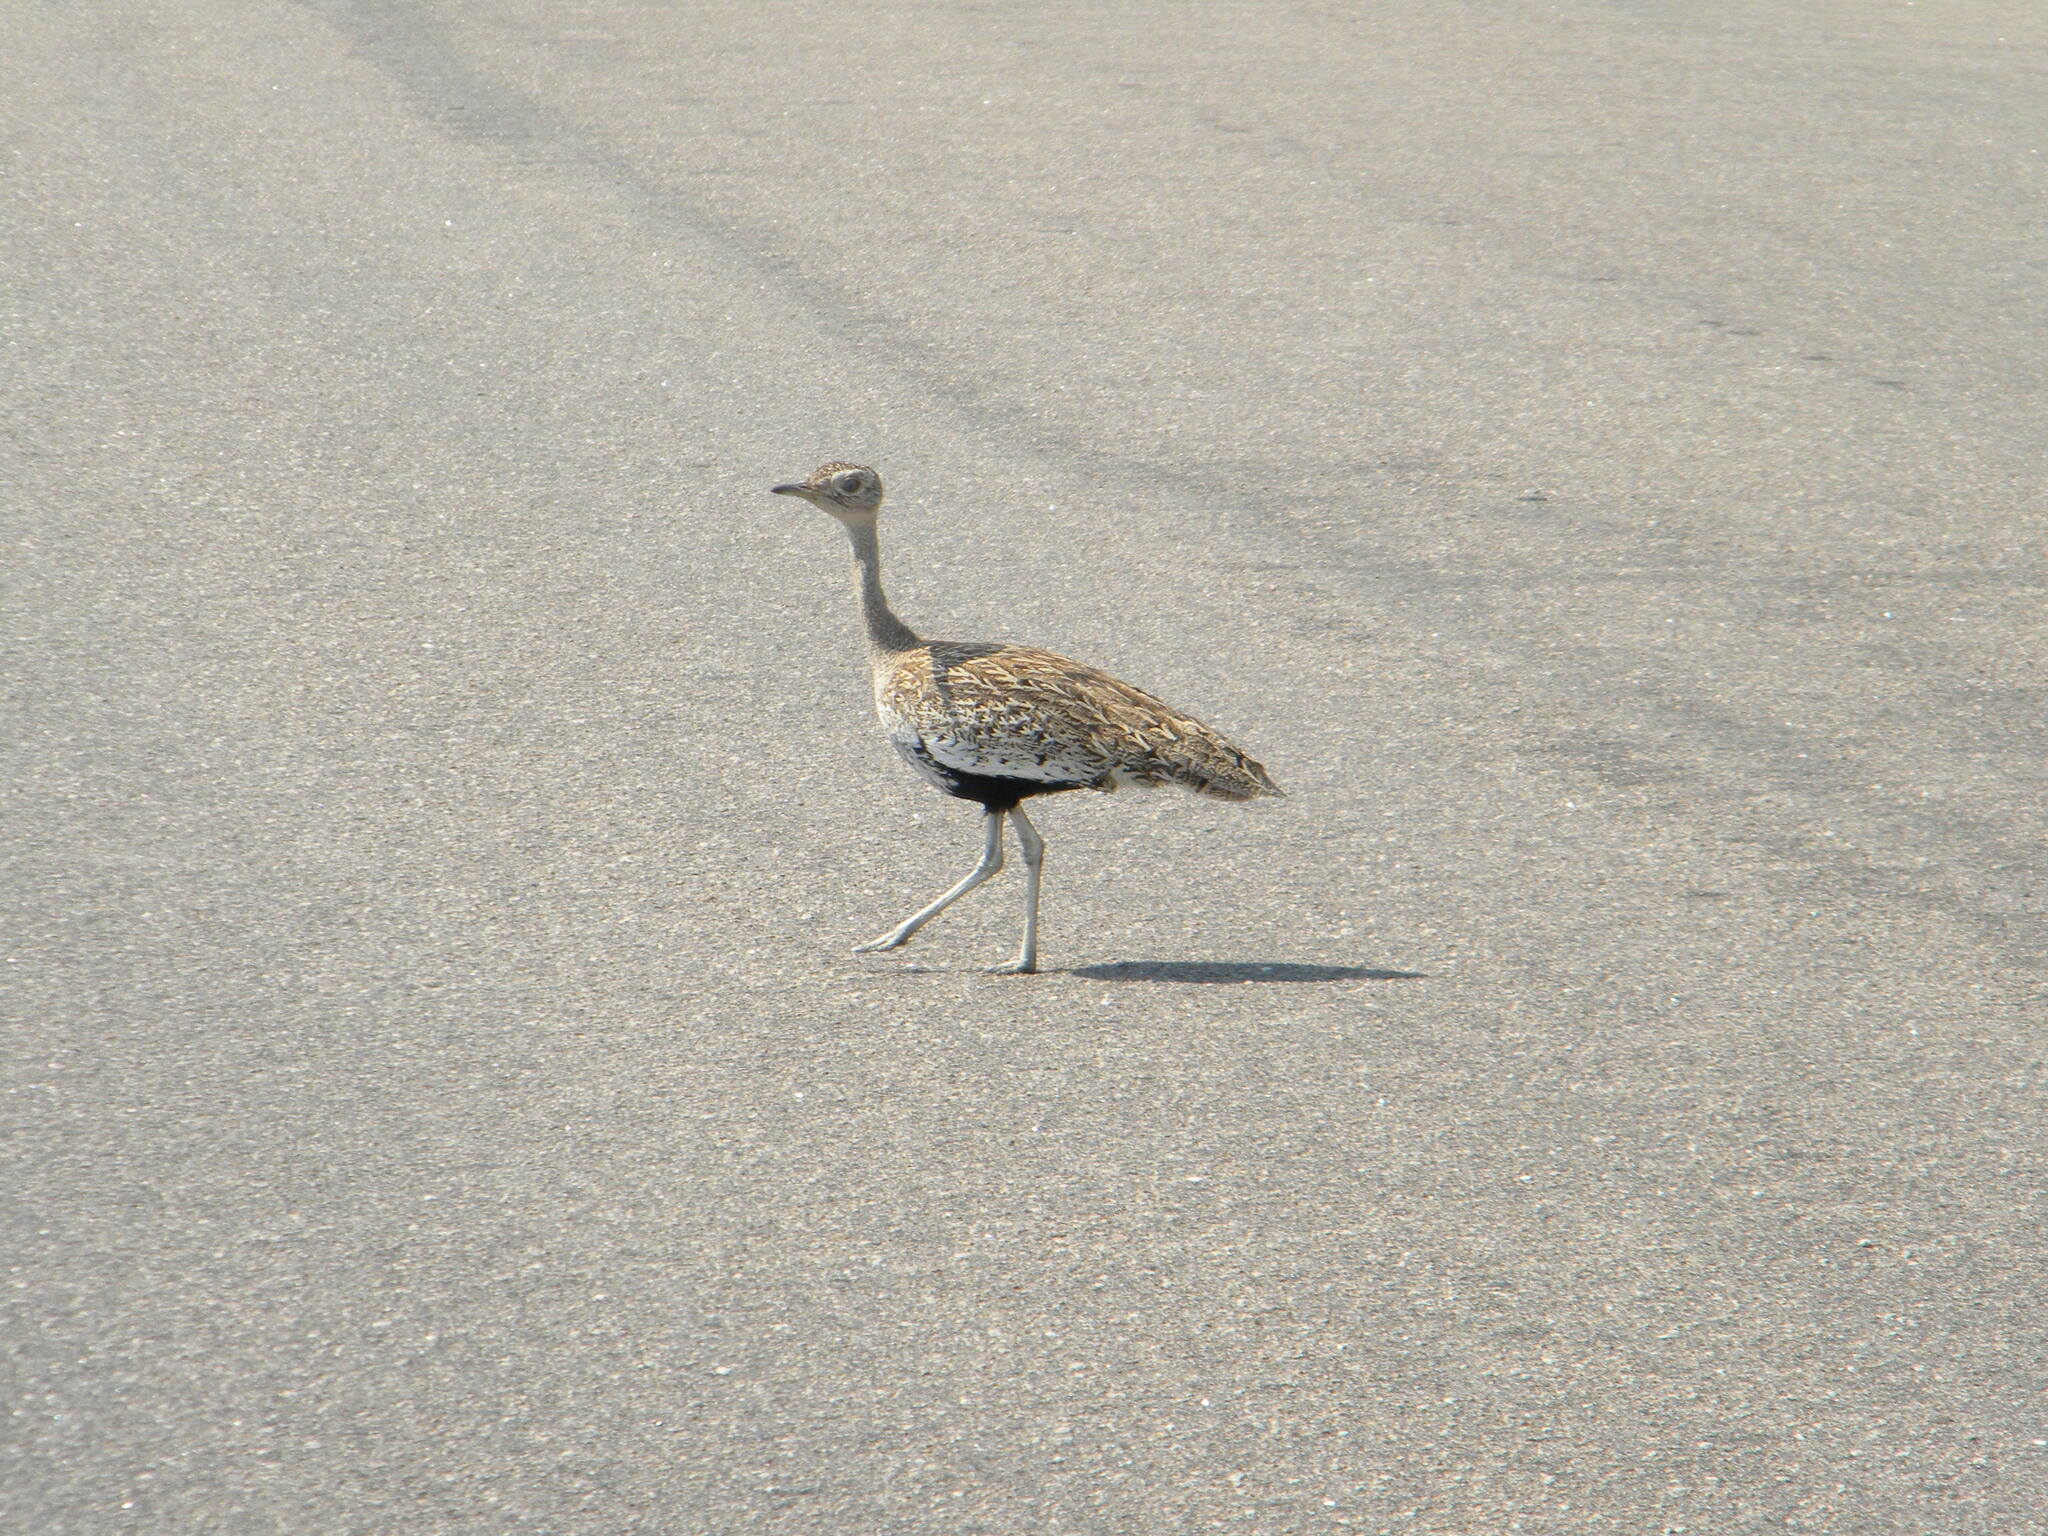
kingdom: Animalia
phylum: Chordata
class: Aves
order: Otidiformes
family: Otididae
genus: Lophotis
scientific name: Lophotis ruficrista
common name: Red-crested korhaan
